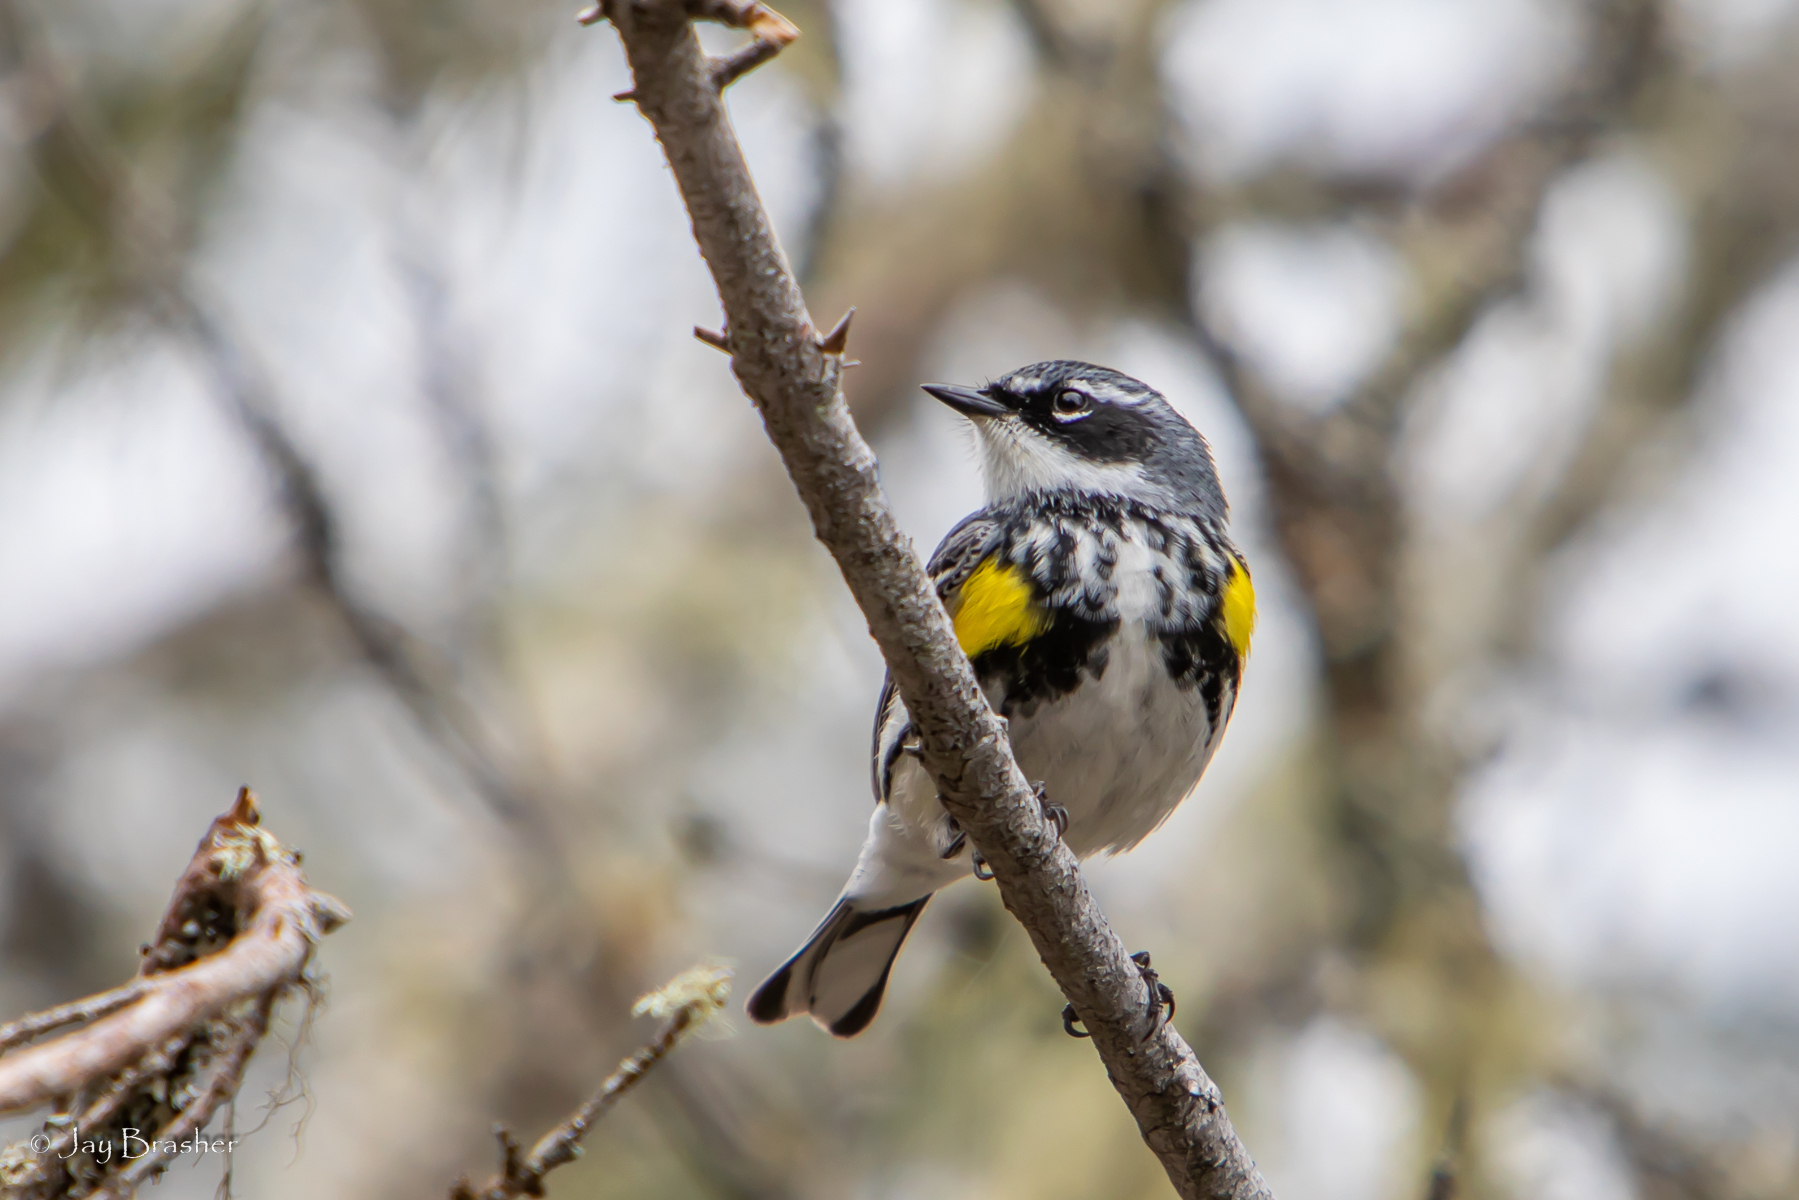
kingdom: Animalia
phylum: Chordata
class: Aves
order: Passeriformes
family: Parulidae
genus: Setophaga
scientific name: Setophaga coronata
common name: Myrtle warbler
